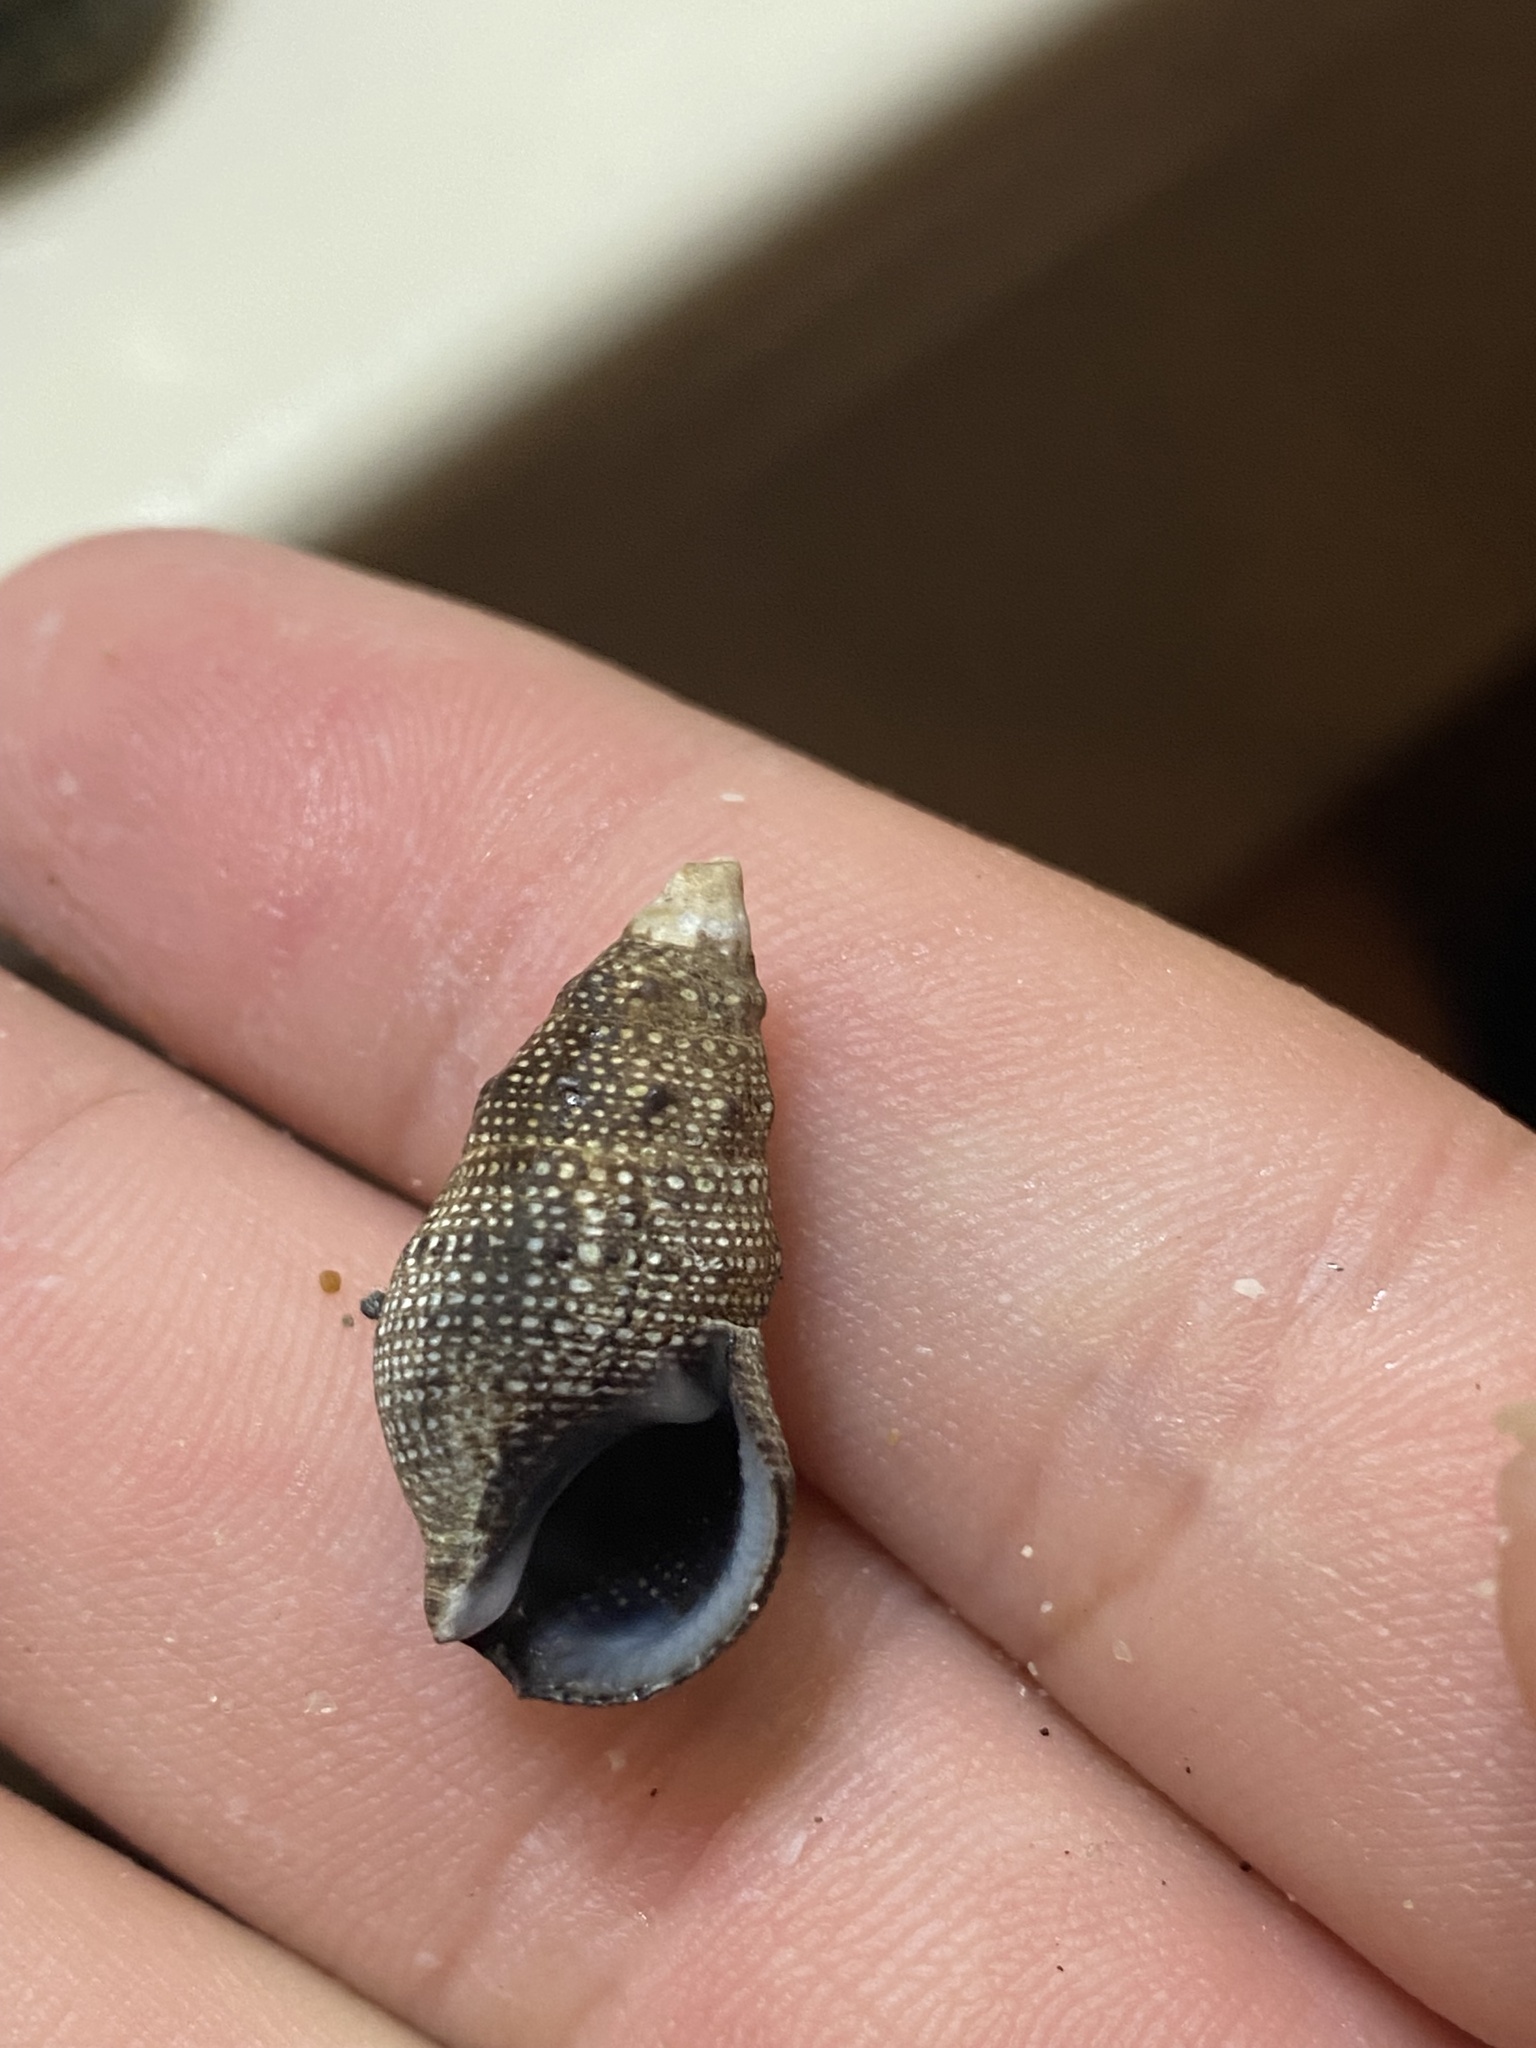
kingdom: Animalia
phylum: Mollusca
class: Gastropoda
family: Cerithiidae
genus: Cerithium
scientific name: Cerithium stercusmuscarum
